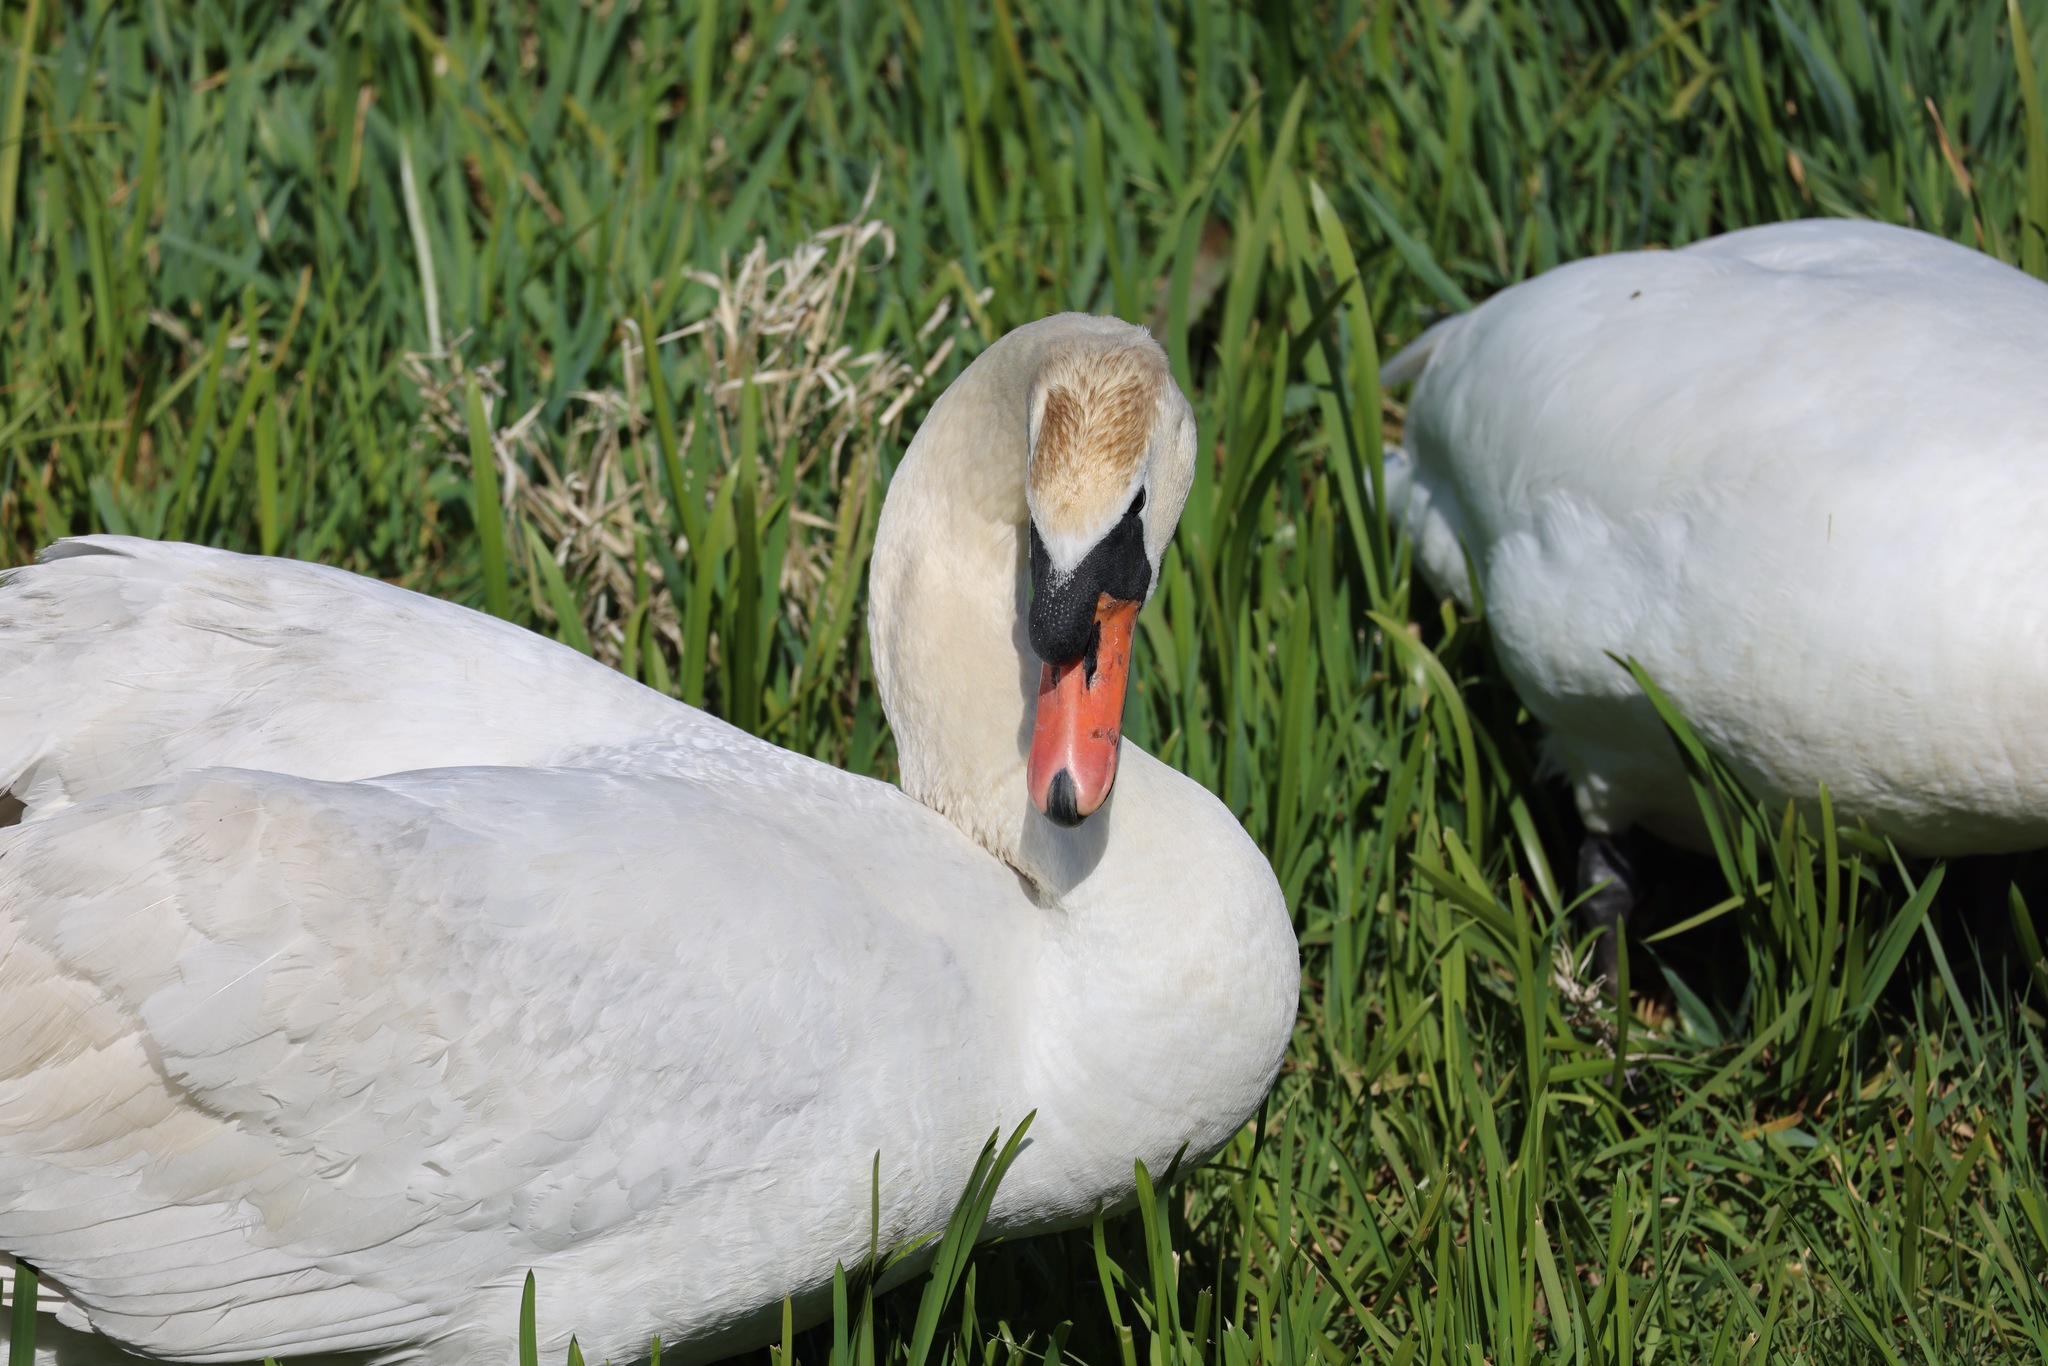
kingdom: Animalia
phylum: Chordata
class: Aves
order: Anseriformes
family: Anatidae
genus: Cygnus
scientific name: Cygnus olor
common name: Mute swan
